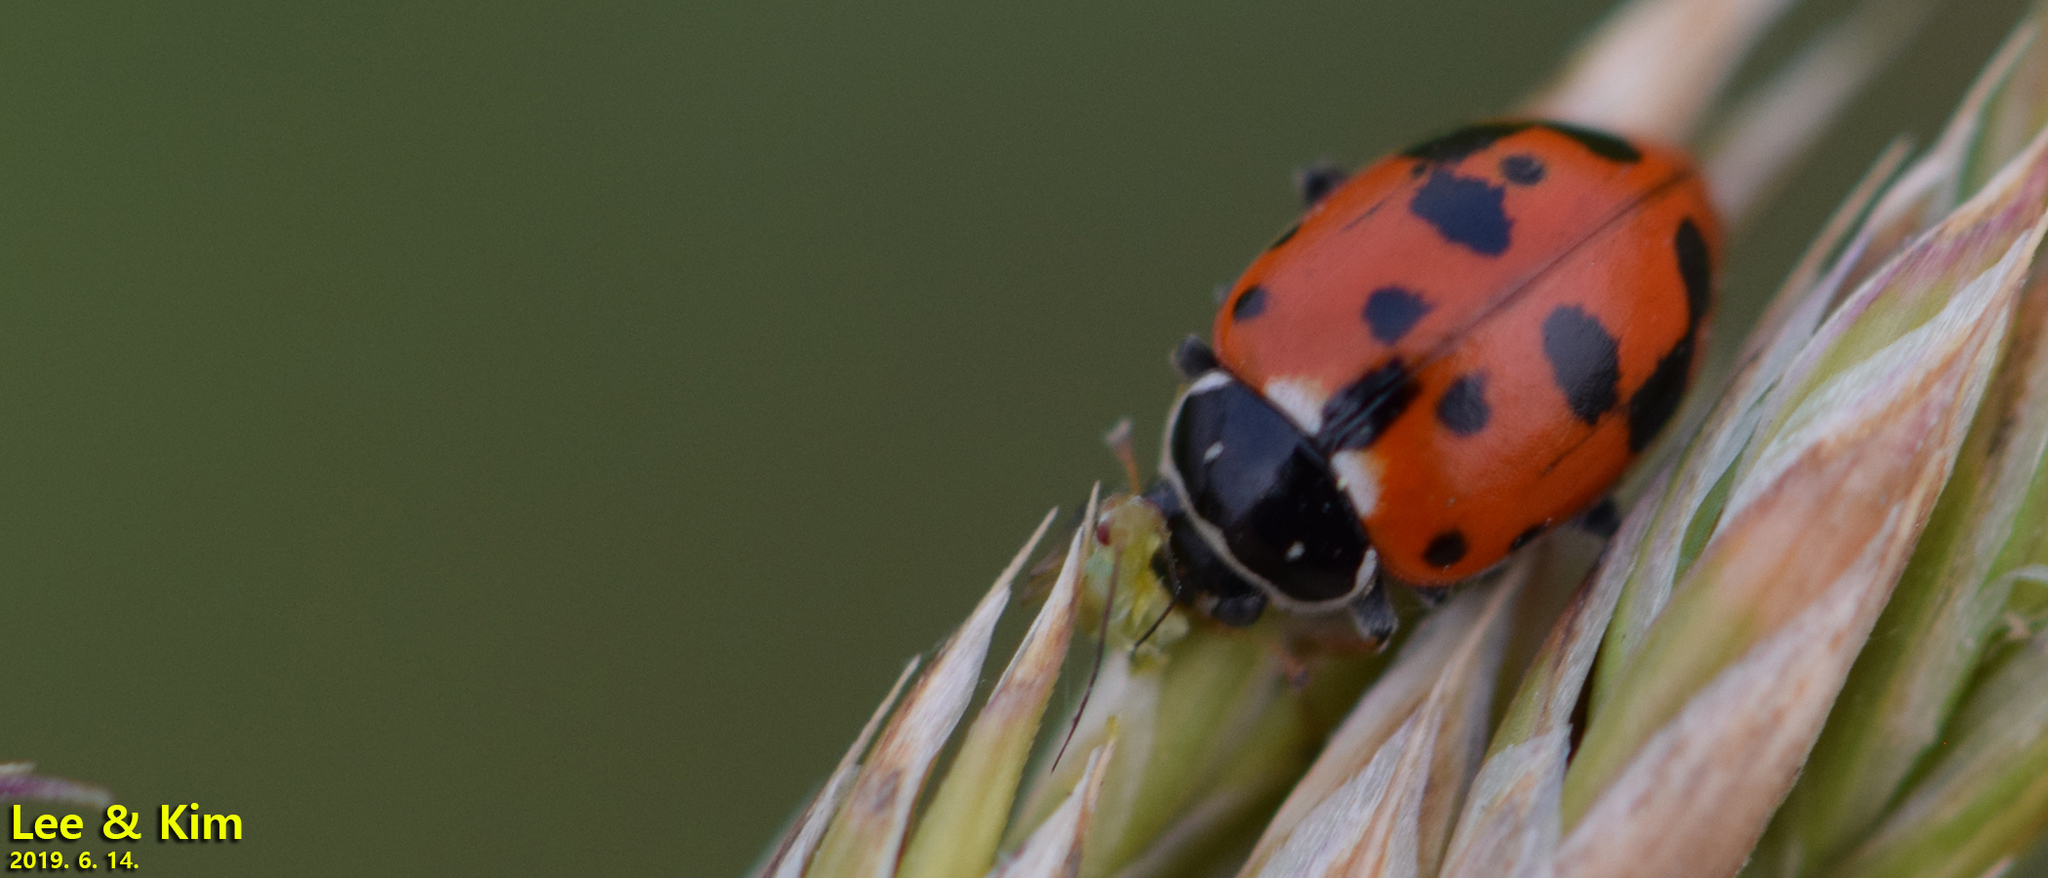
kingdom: Animalia
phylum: Arthropoda
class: Insecta
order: Coleoptera
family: Coccinellidae
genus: Hippodamia
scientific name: Hippodamia variegata
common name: Ladybird beetle
